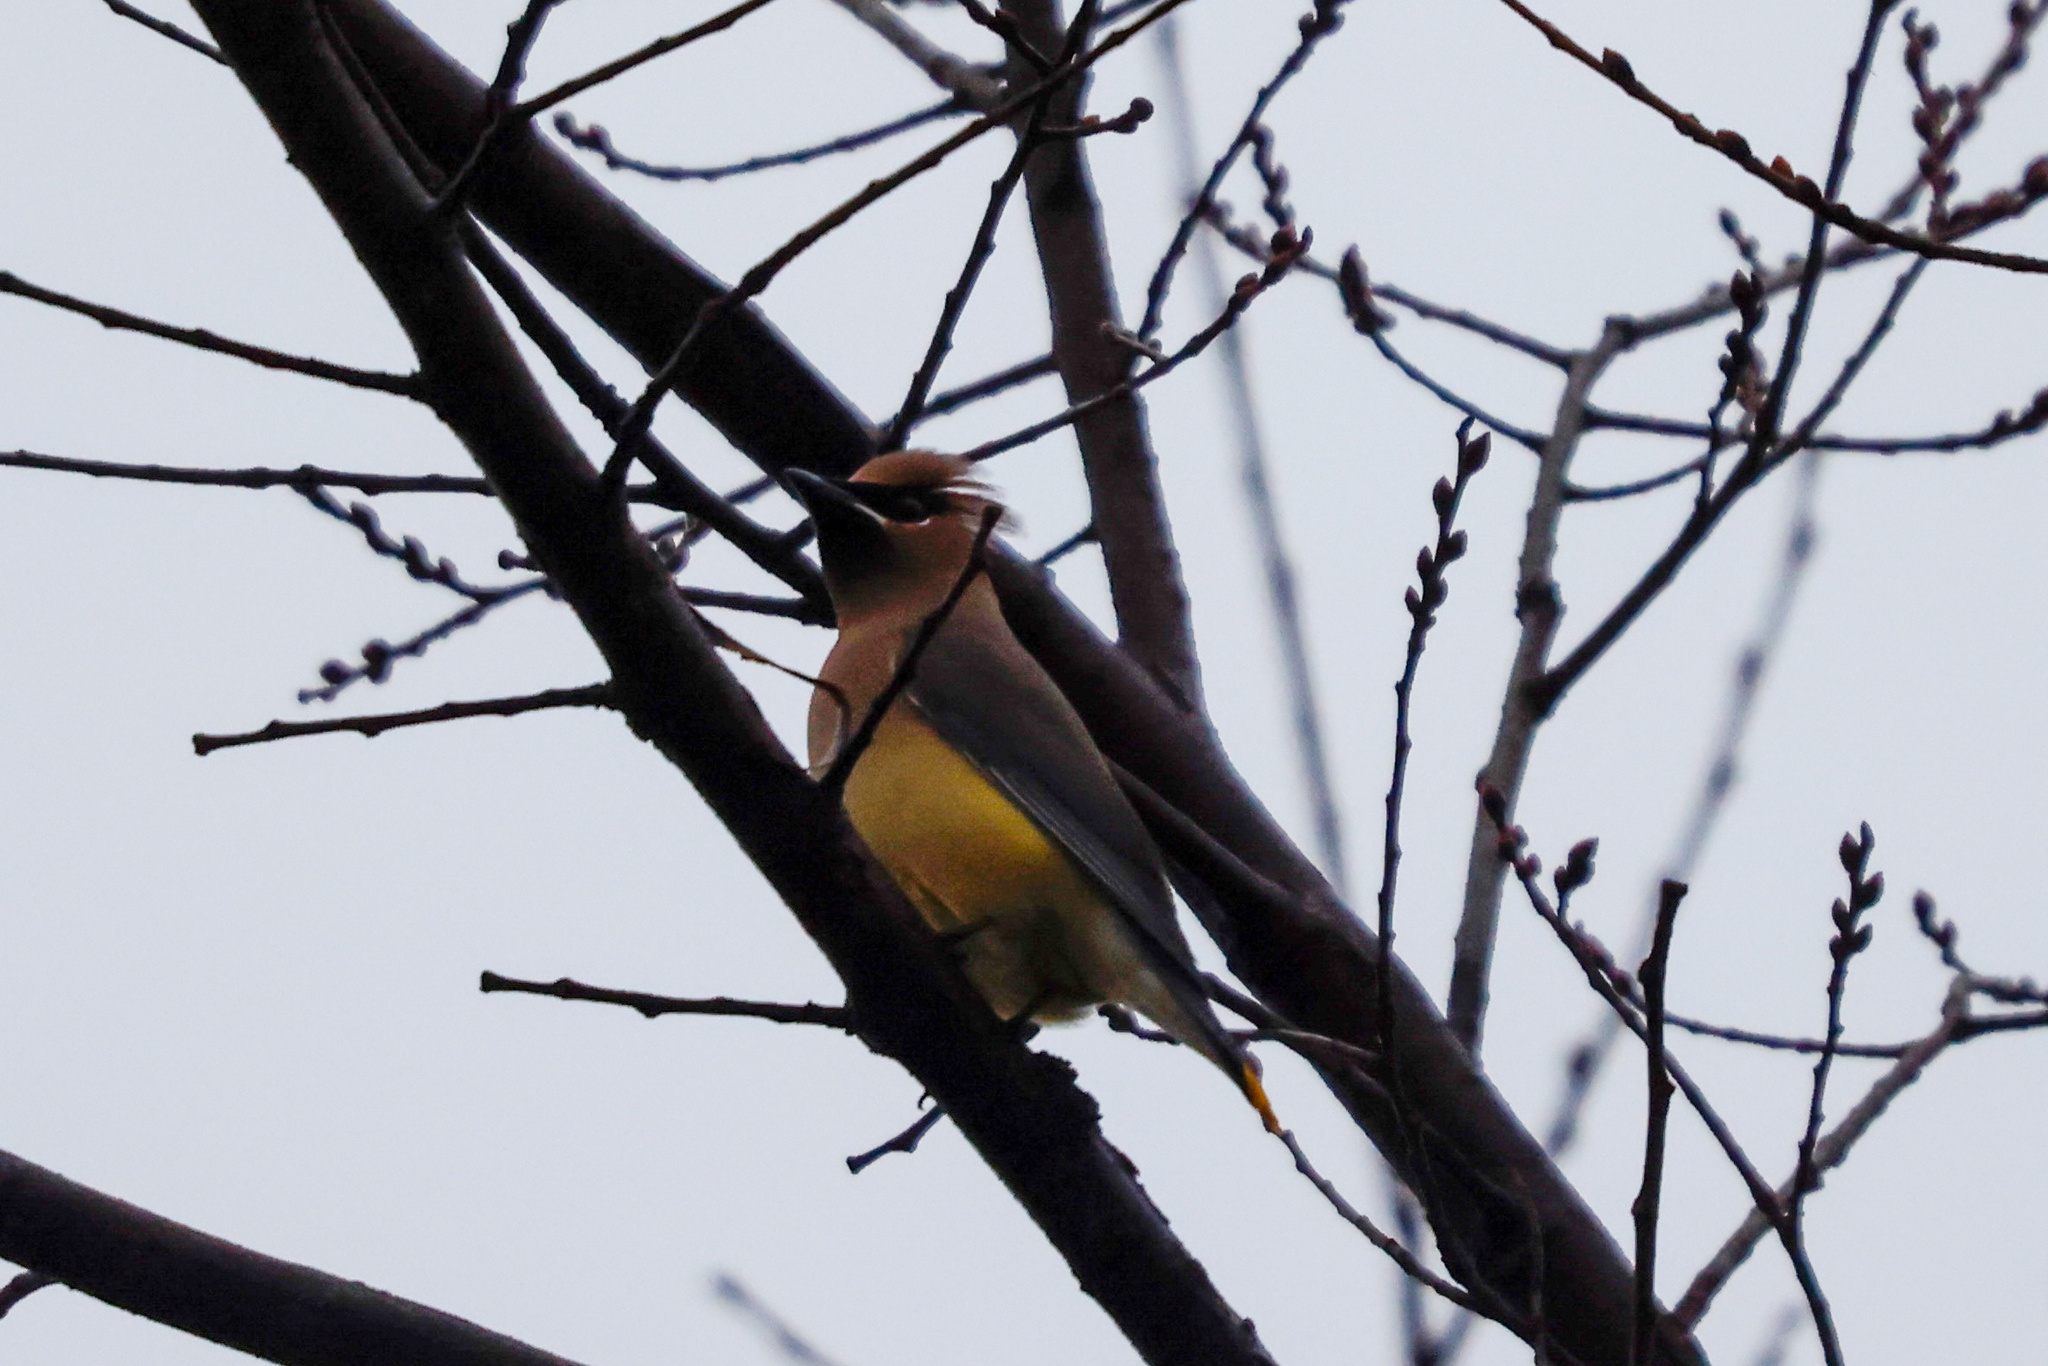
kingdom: Animalia
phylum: Chordata
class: Aves
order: Passeriformes
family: Bombycillidae
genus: Bombycilla
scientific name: Bombycilla cedrorum
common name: Cedar waxwing
